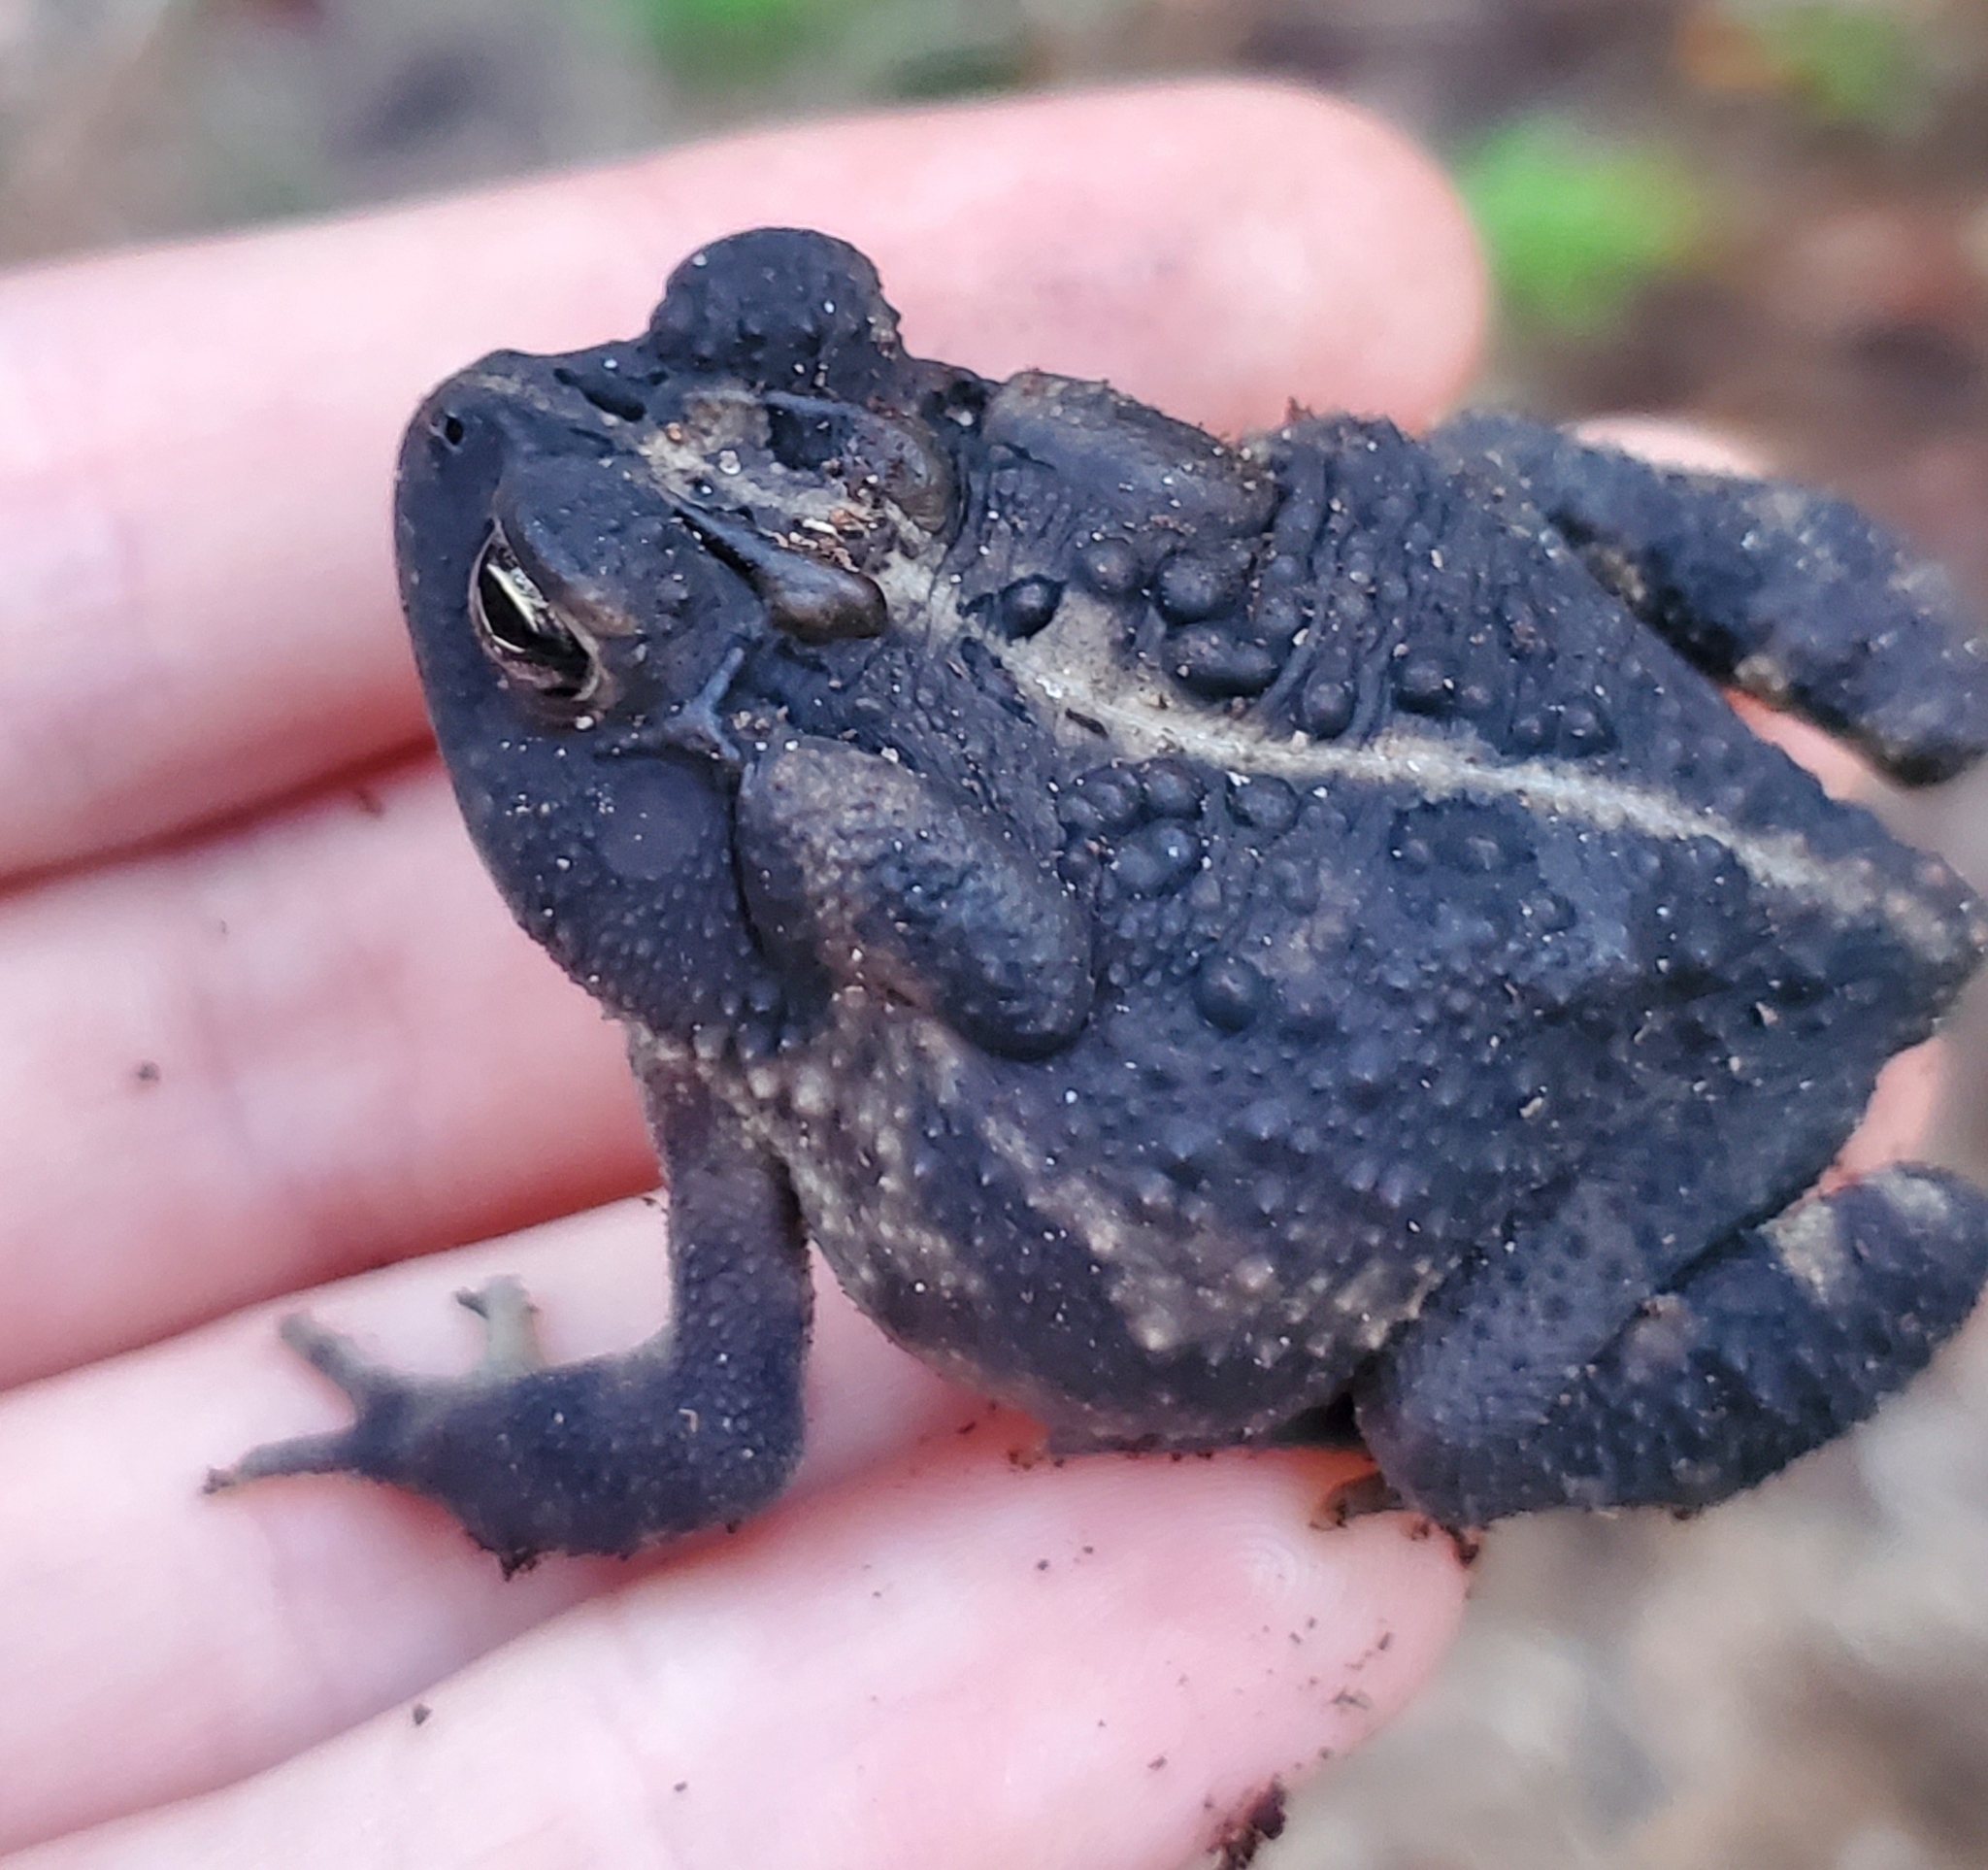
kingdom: Animalia
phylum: Chordata
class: Amphibia
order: Anura
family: Bufonidae
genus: Anaxyrus
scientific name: Anaxyrus terrestris
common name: Southern toad
